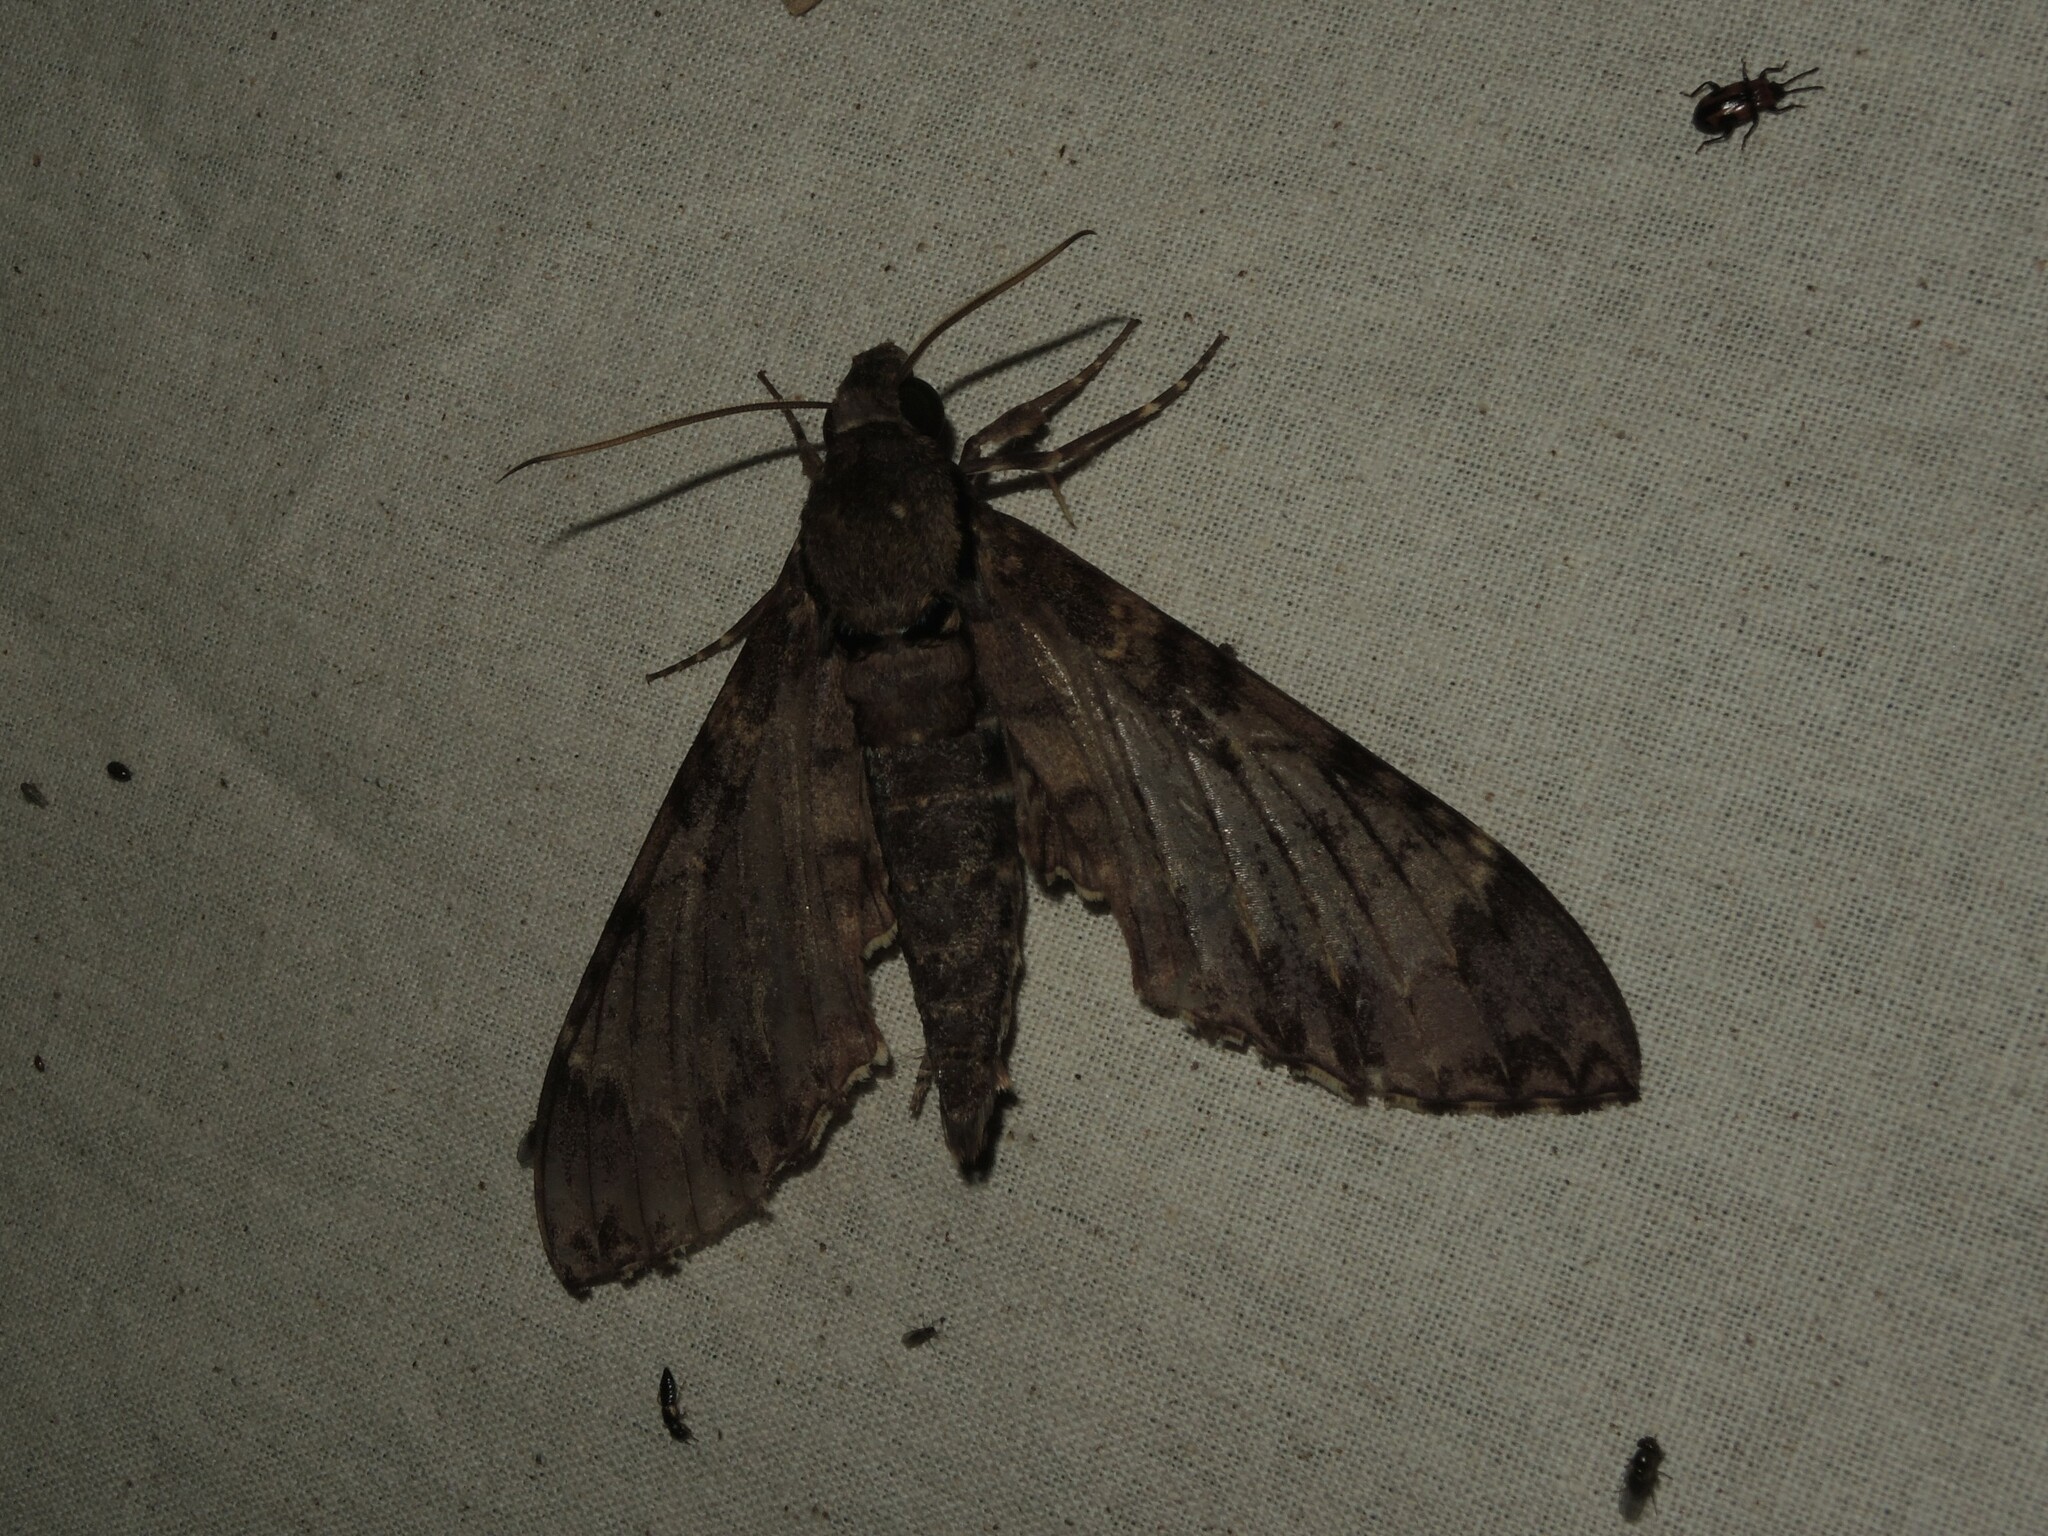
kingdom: Animalia
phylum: Arthropoda
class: Insecta
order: Lepidoptera
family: Sphingidae
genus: Meganoton
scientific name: Meganoton nyctiphanes
